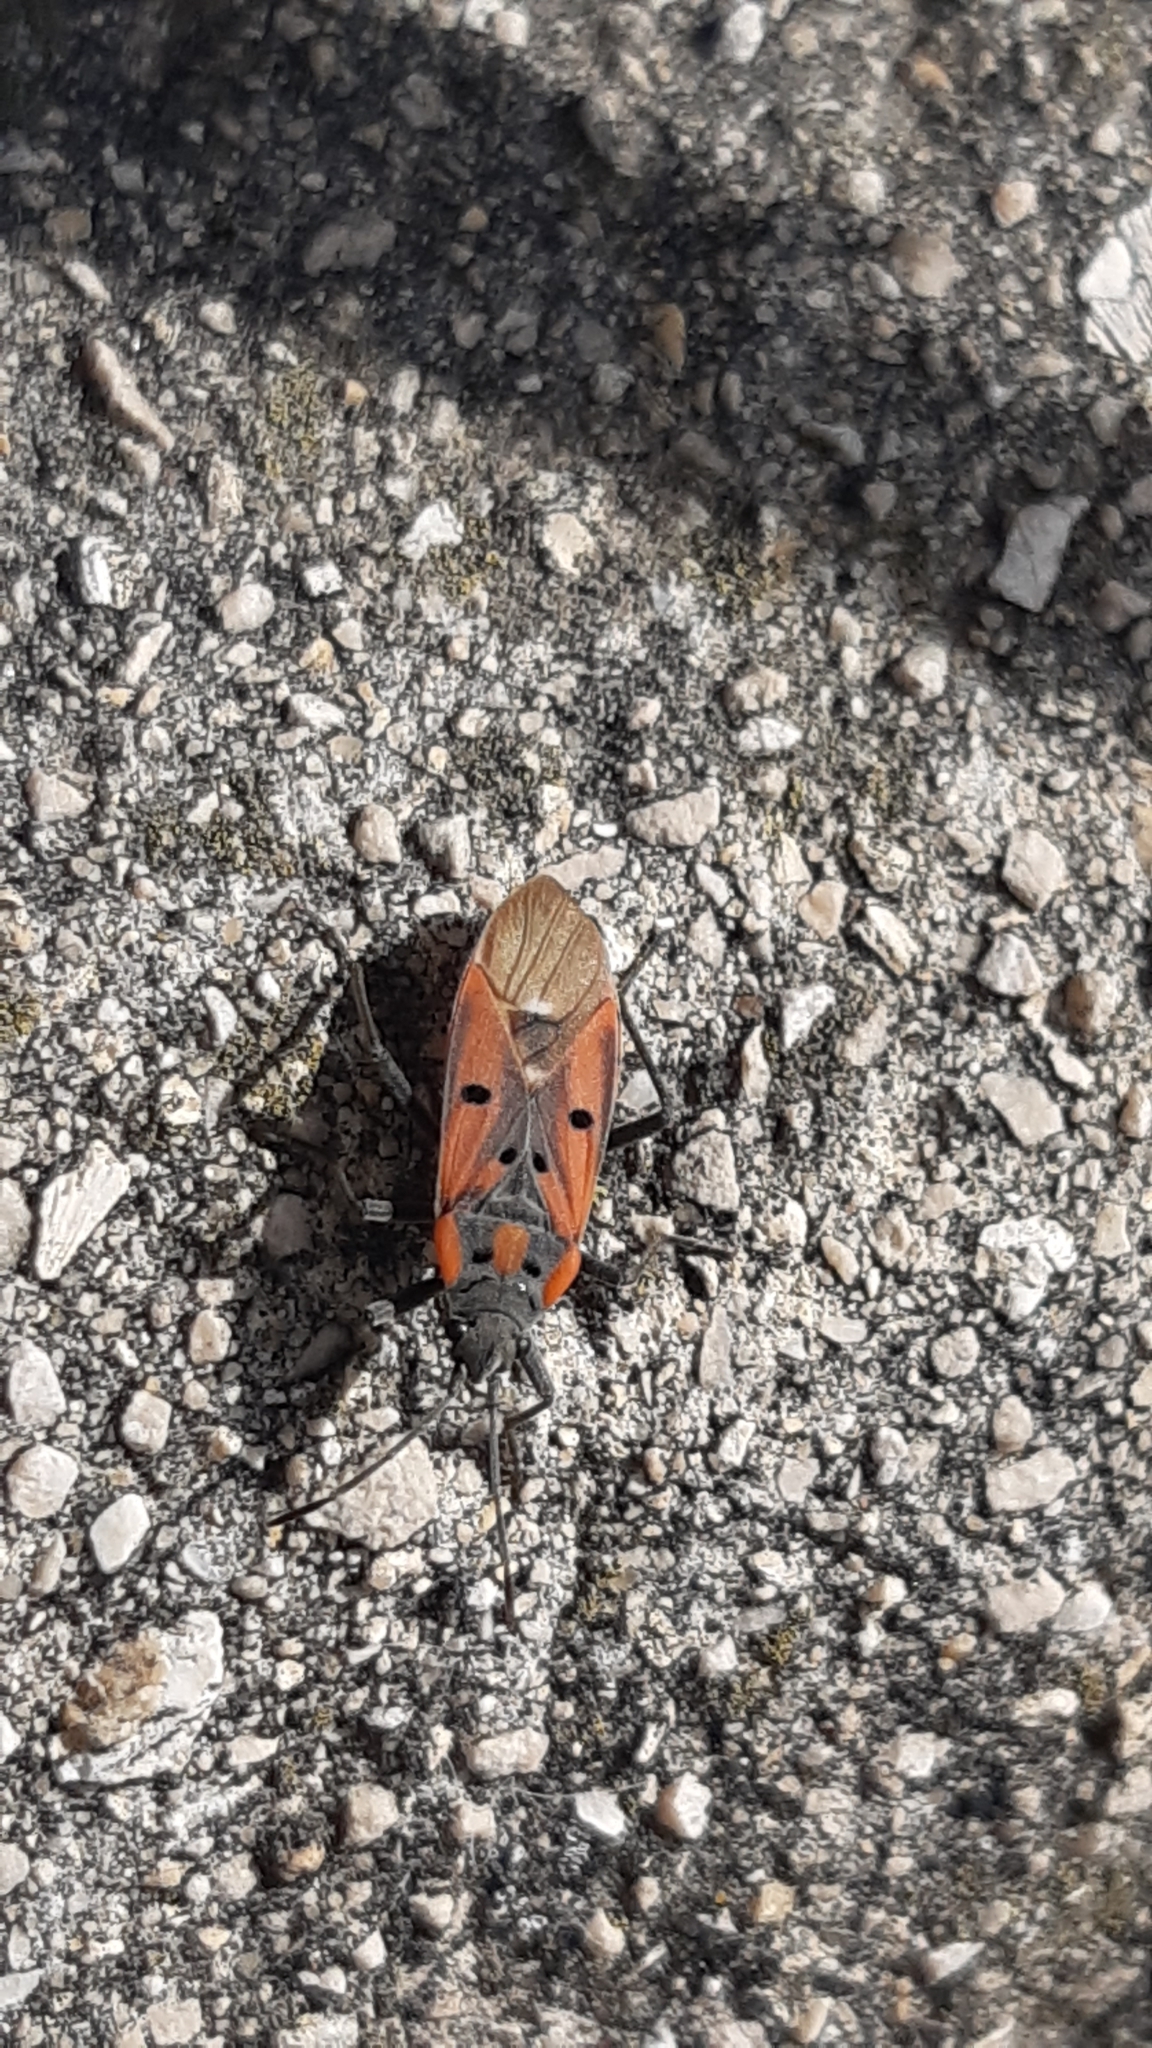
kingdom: Animalia
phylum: Arthropoda
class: Insecta
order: Hemiptera
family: Lygaeidae
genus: Lygaeus
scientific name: Lygaeus creticus
